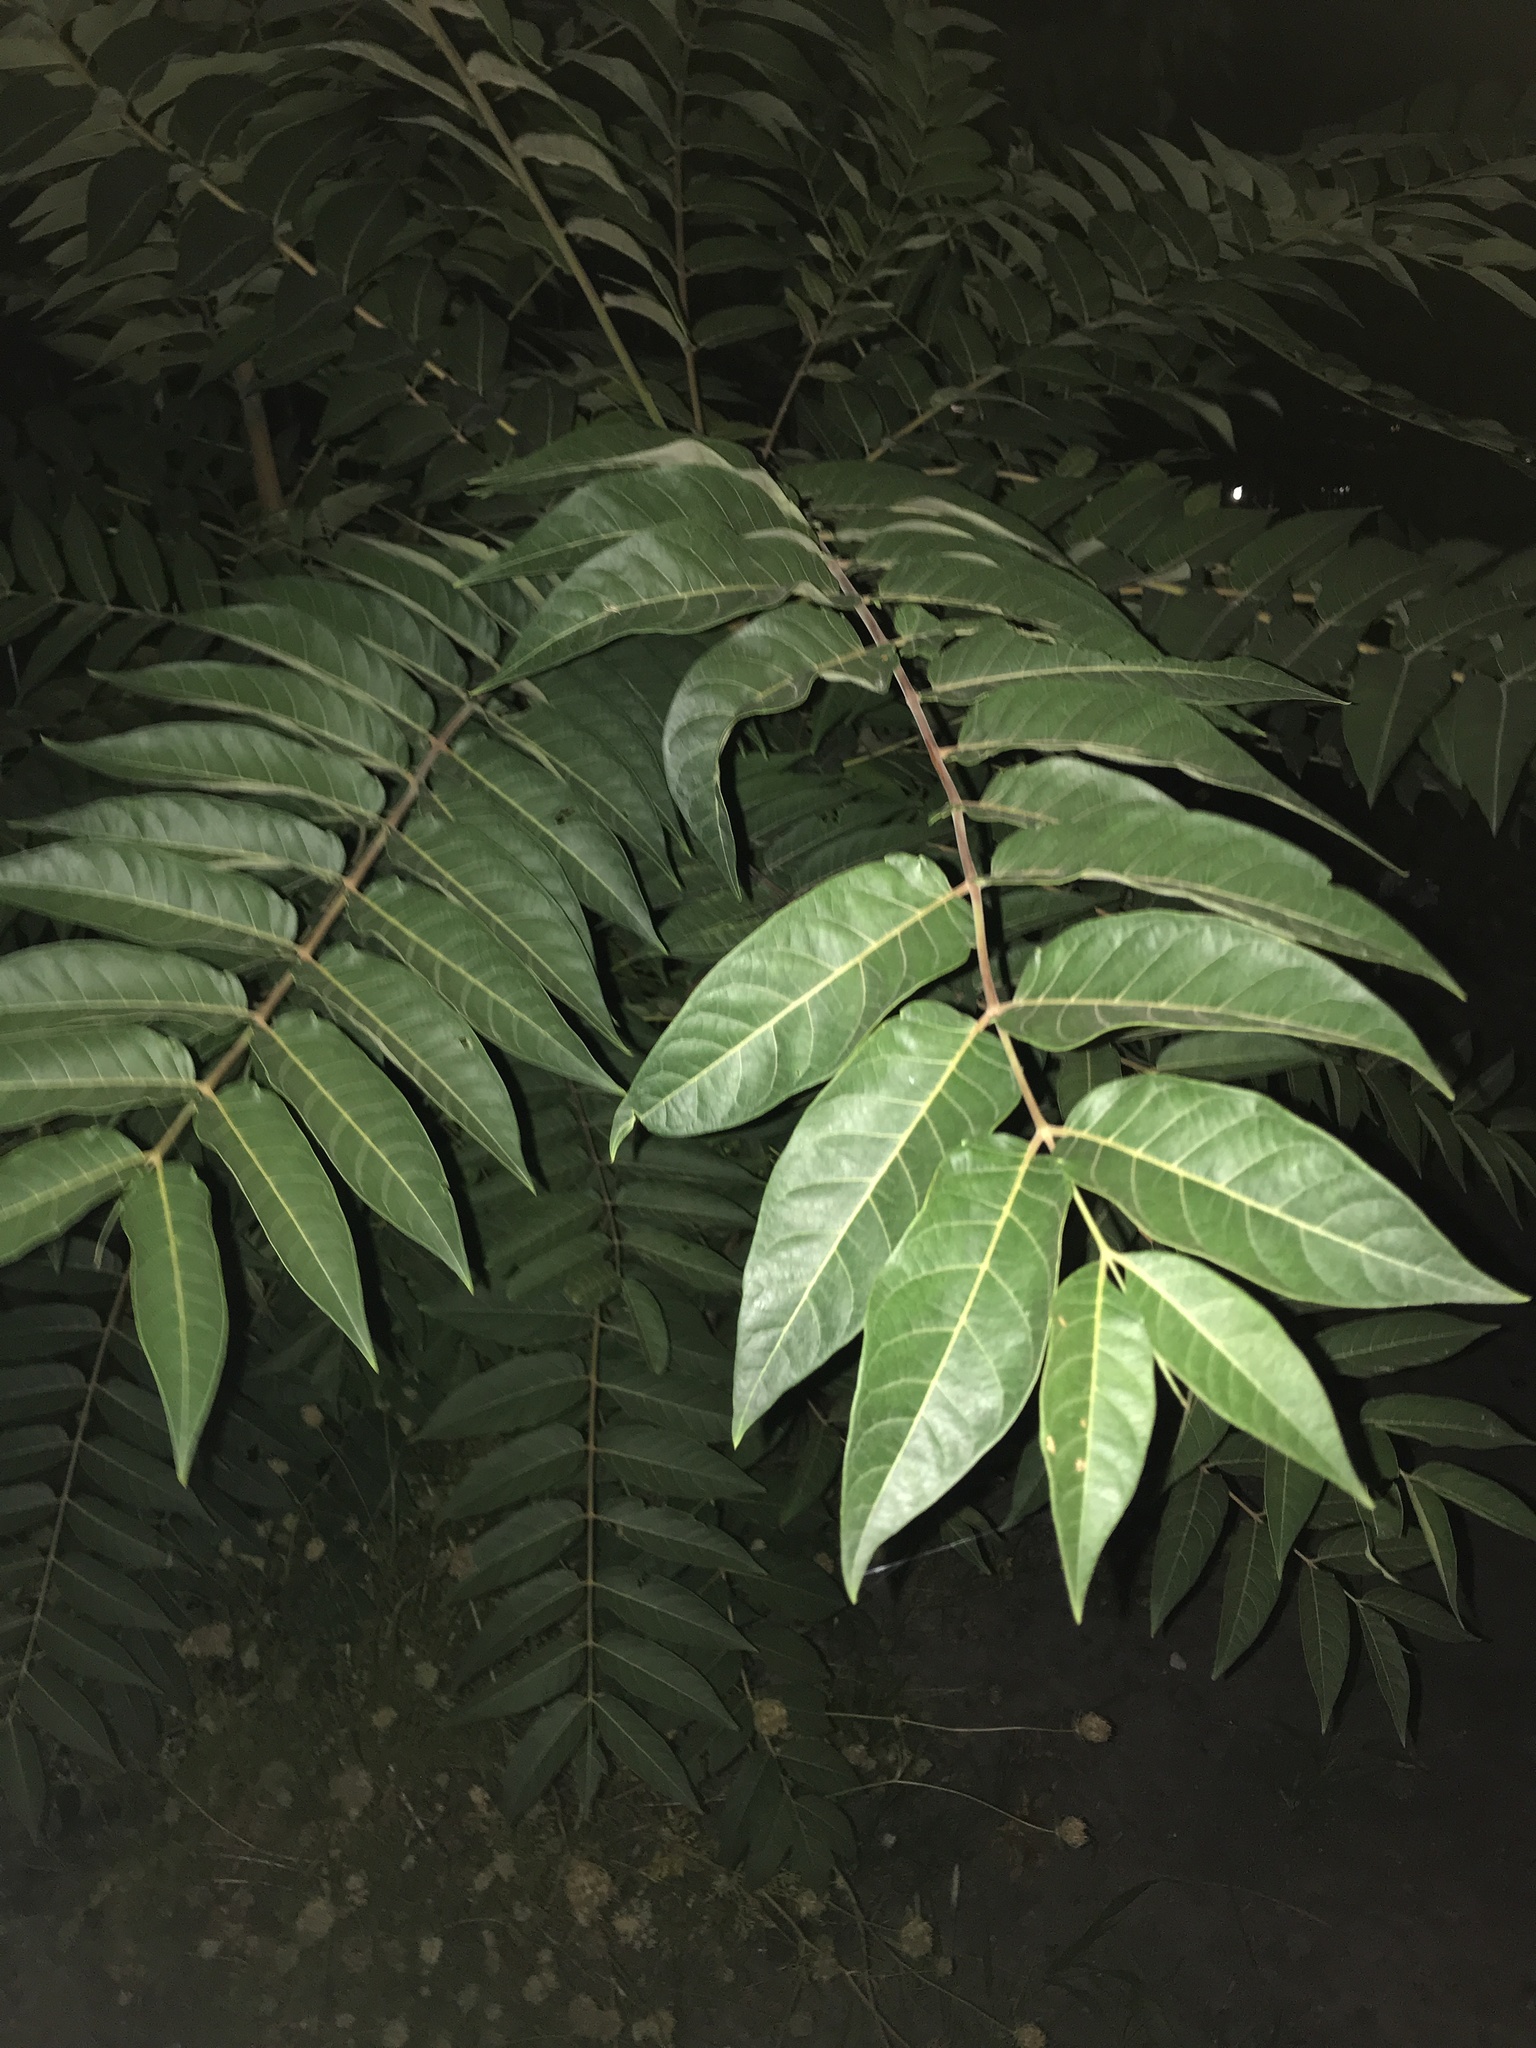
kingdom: Plantae
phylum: Tracheophyta
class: Magnoliopsida
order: Sapindales
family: Simaroubaceae
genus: Ailanthus
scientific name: Ailanthus altissima
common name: Tree-of-heaven
